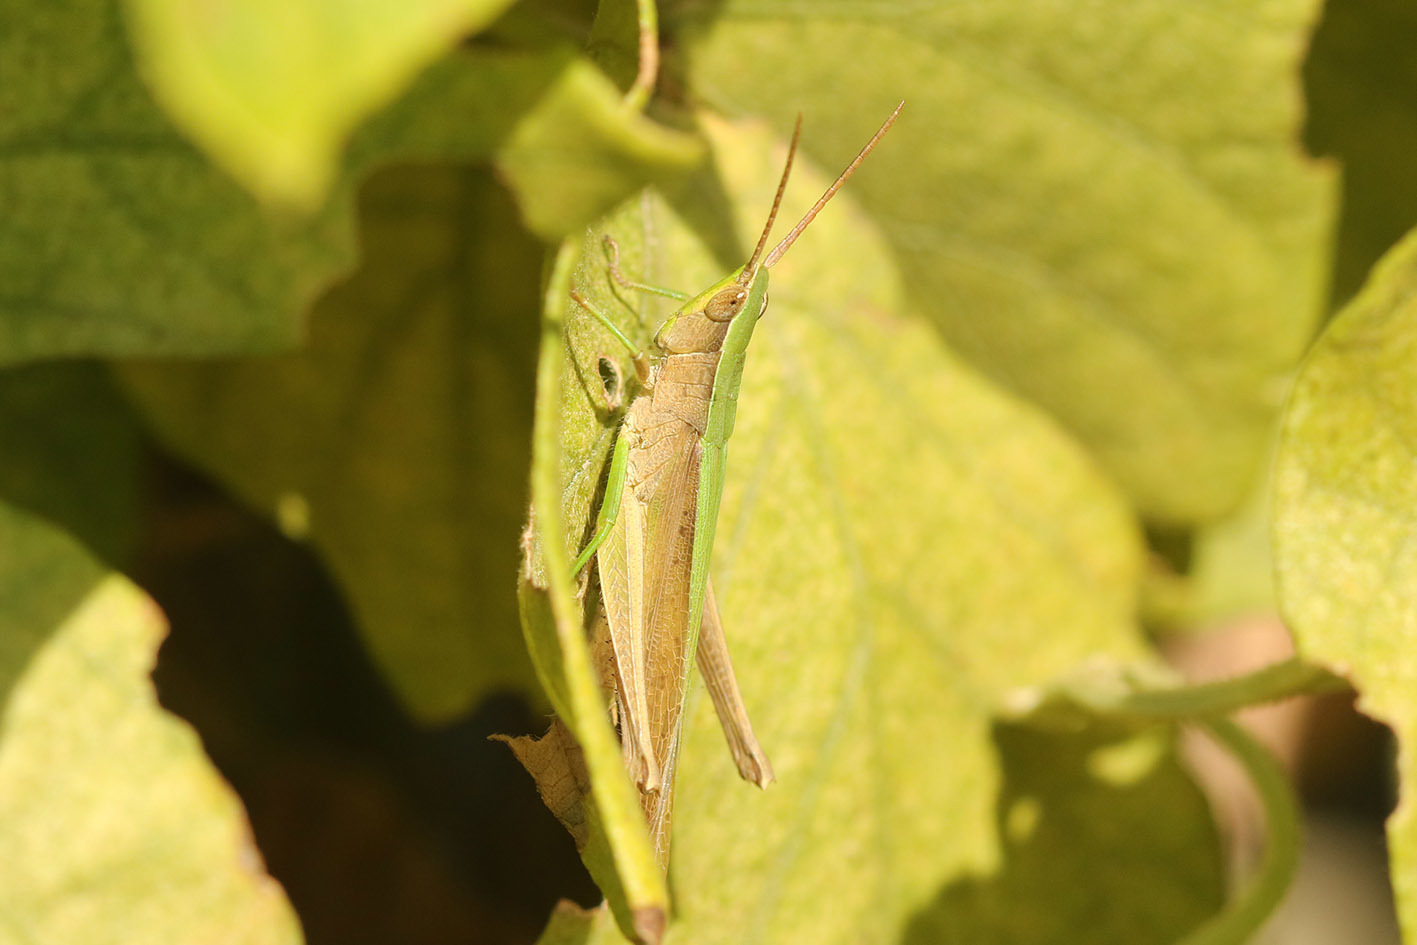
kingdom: Animalia
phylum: Arthropoda
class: Insecta
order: Orthoptera
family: Acrididae
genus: Metaleptea
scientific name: Metaleptea adspersa
